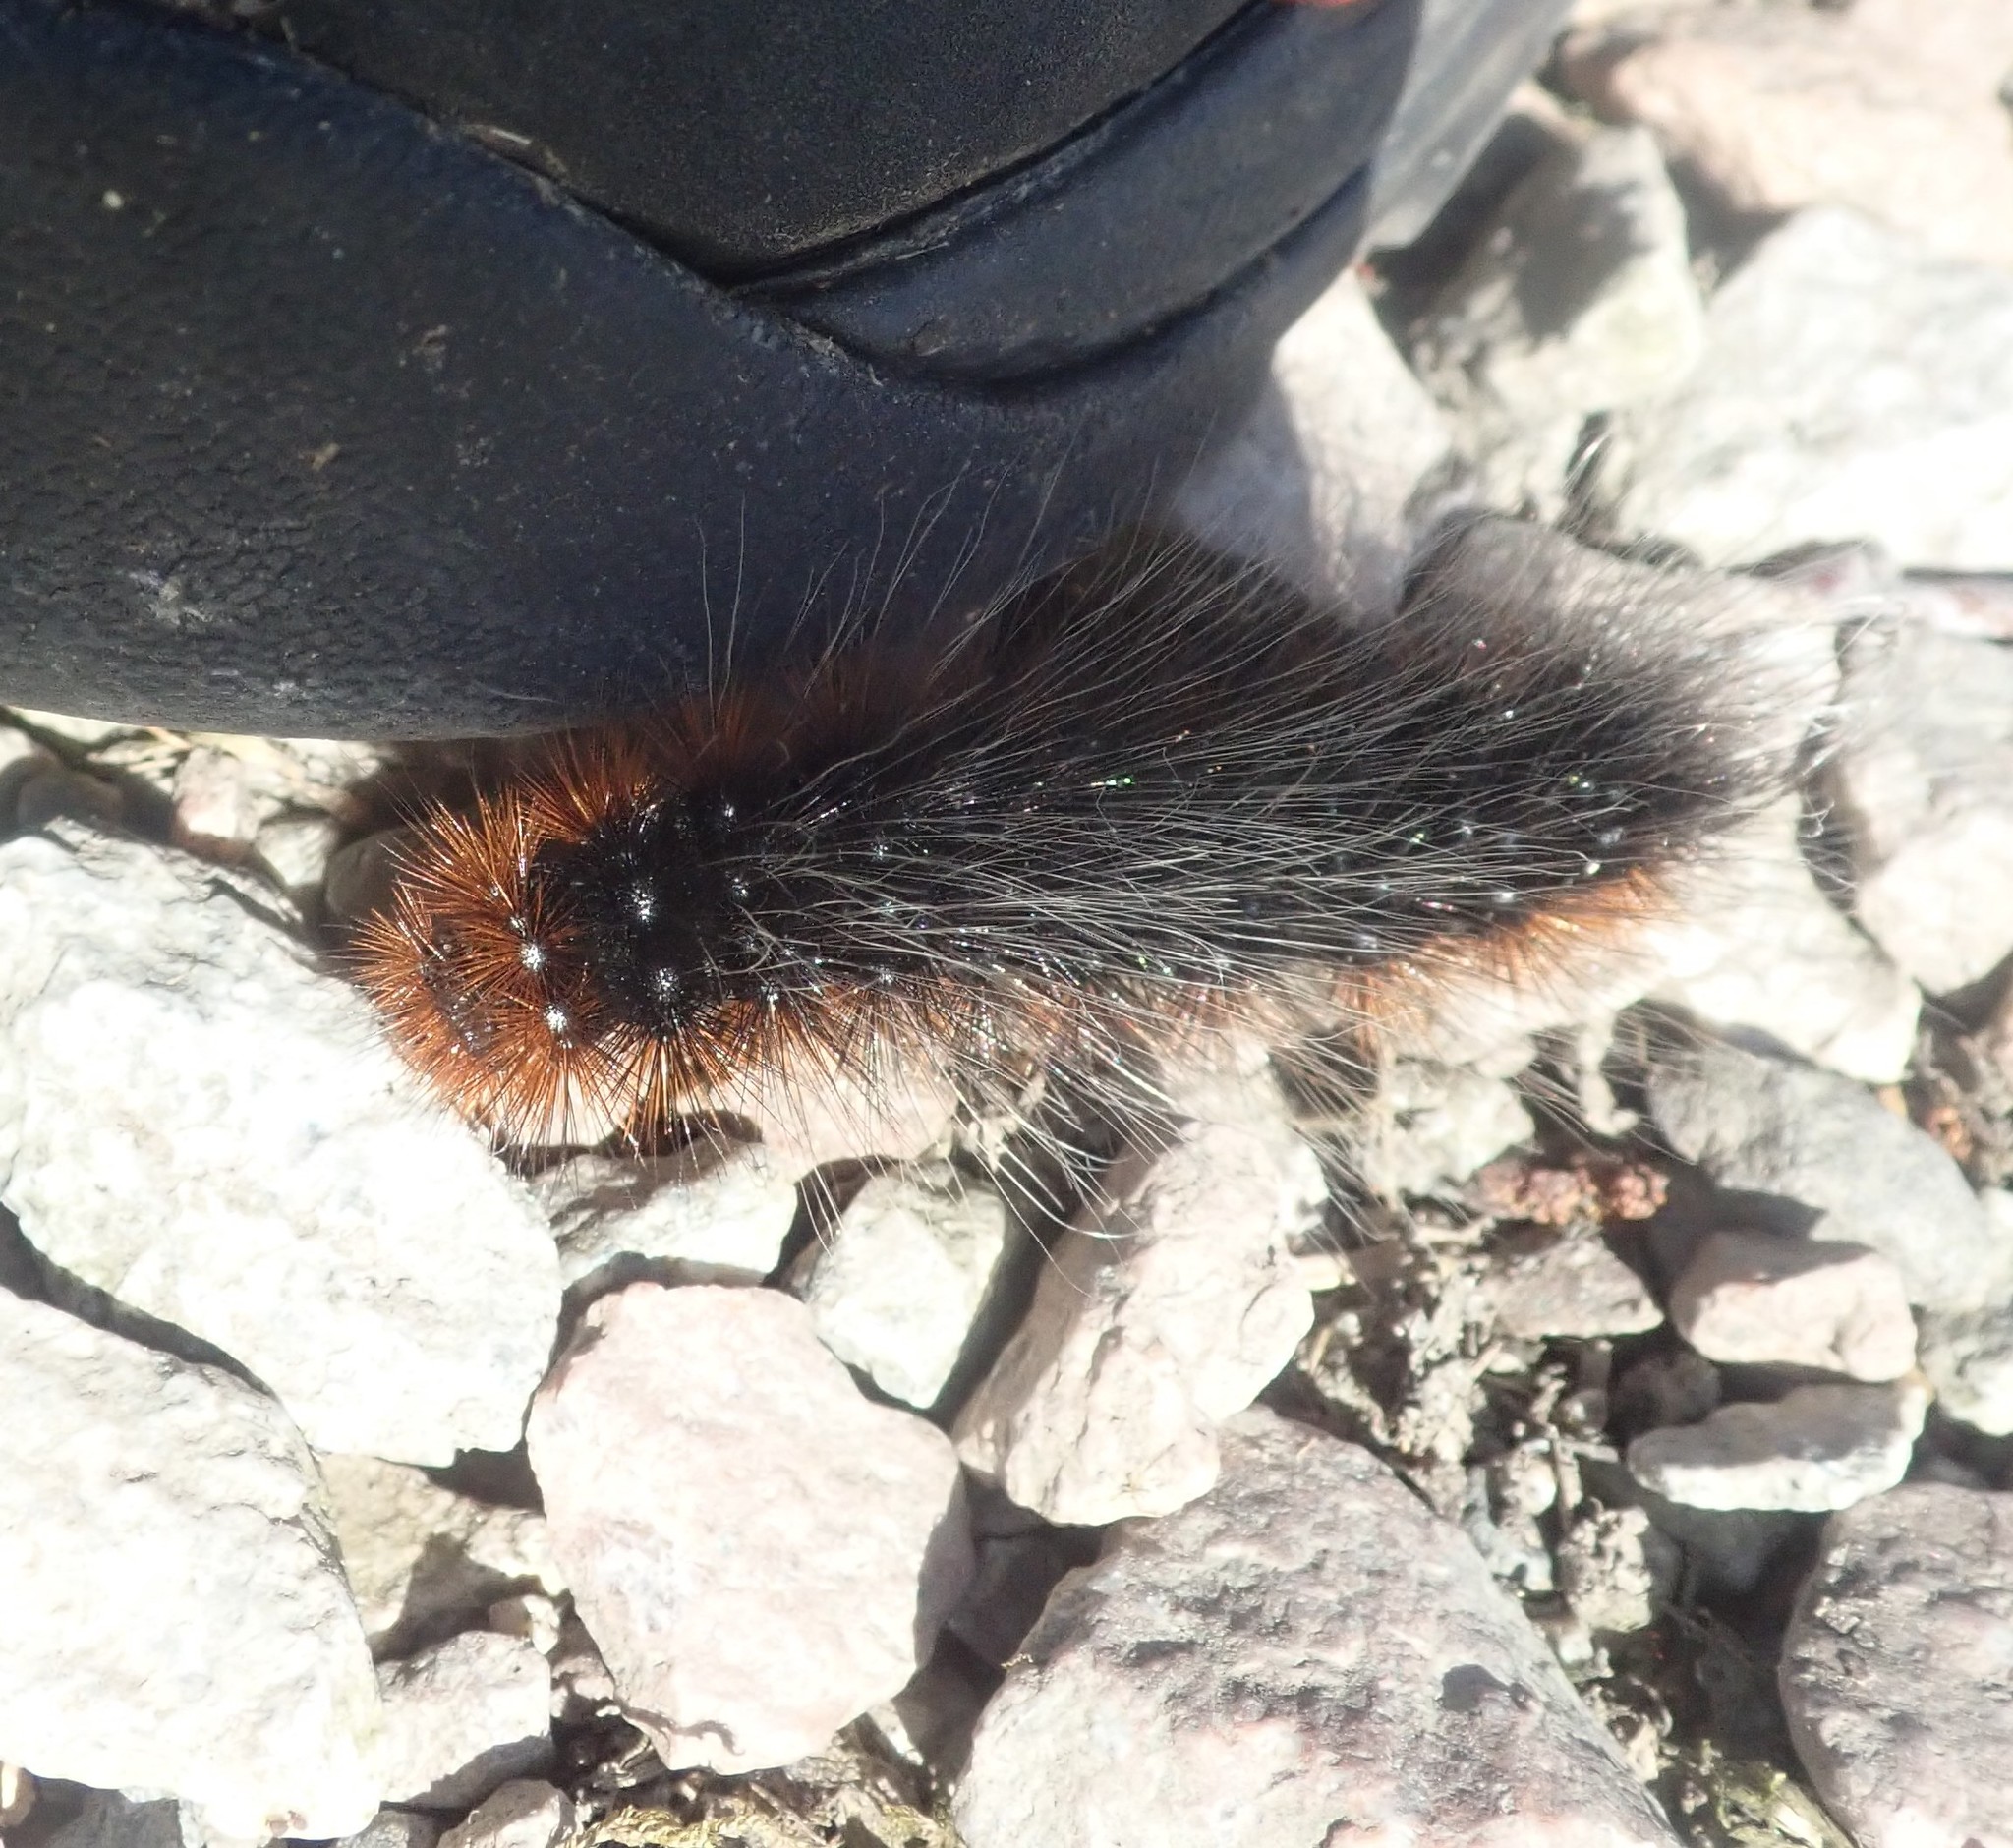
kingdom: Animalia
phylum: Arthropoda
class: Insecta
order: Lepidoptera
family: Erebidae
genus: Arctia
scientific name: Arctia caja
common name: Garden tiger
